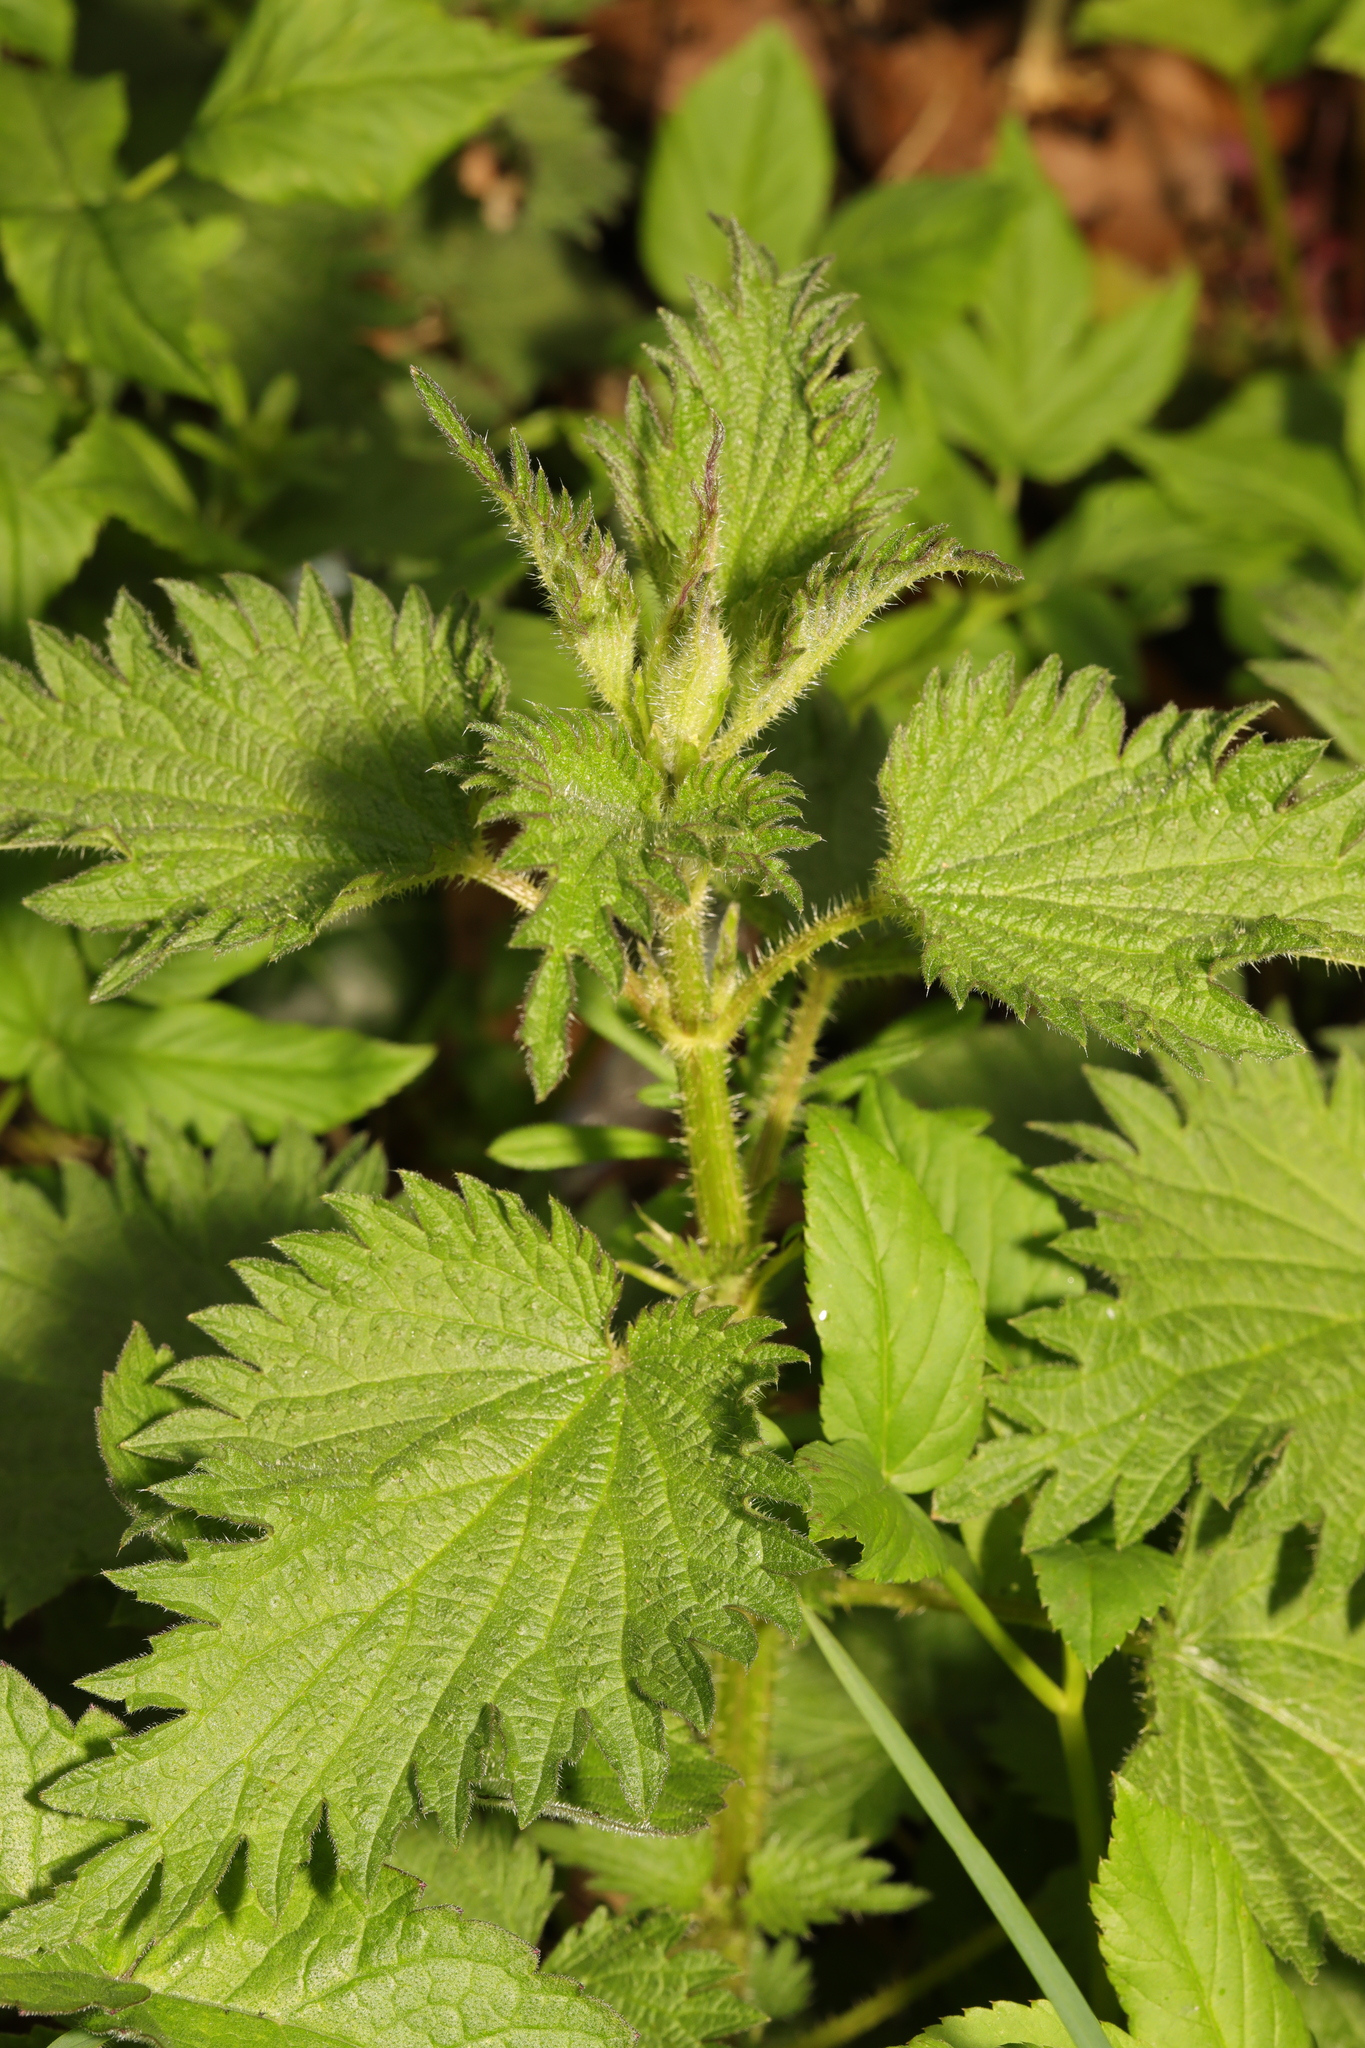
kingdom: Plantae
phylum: Tracheophyta
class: Magnoliopsida
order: Rosales
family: Urticaceae
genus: Urtica
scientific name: Urtica dioica
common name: Common nettle
